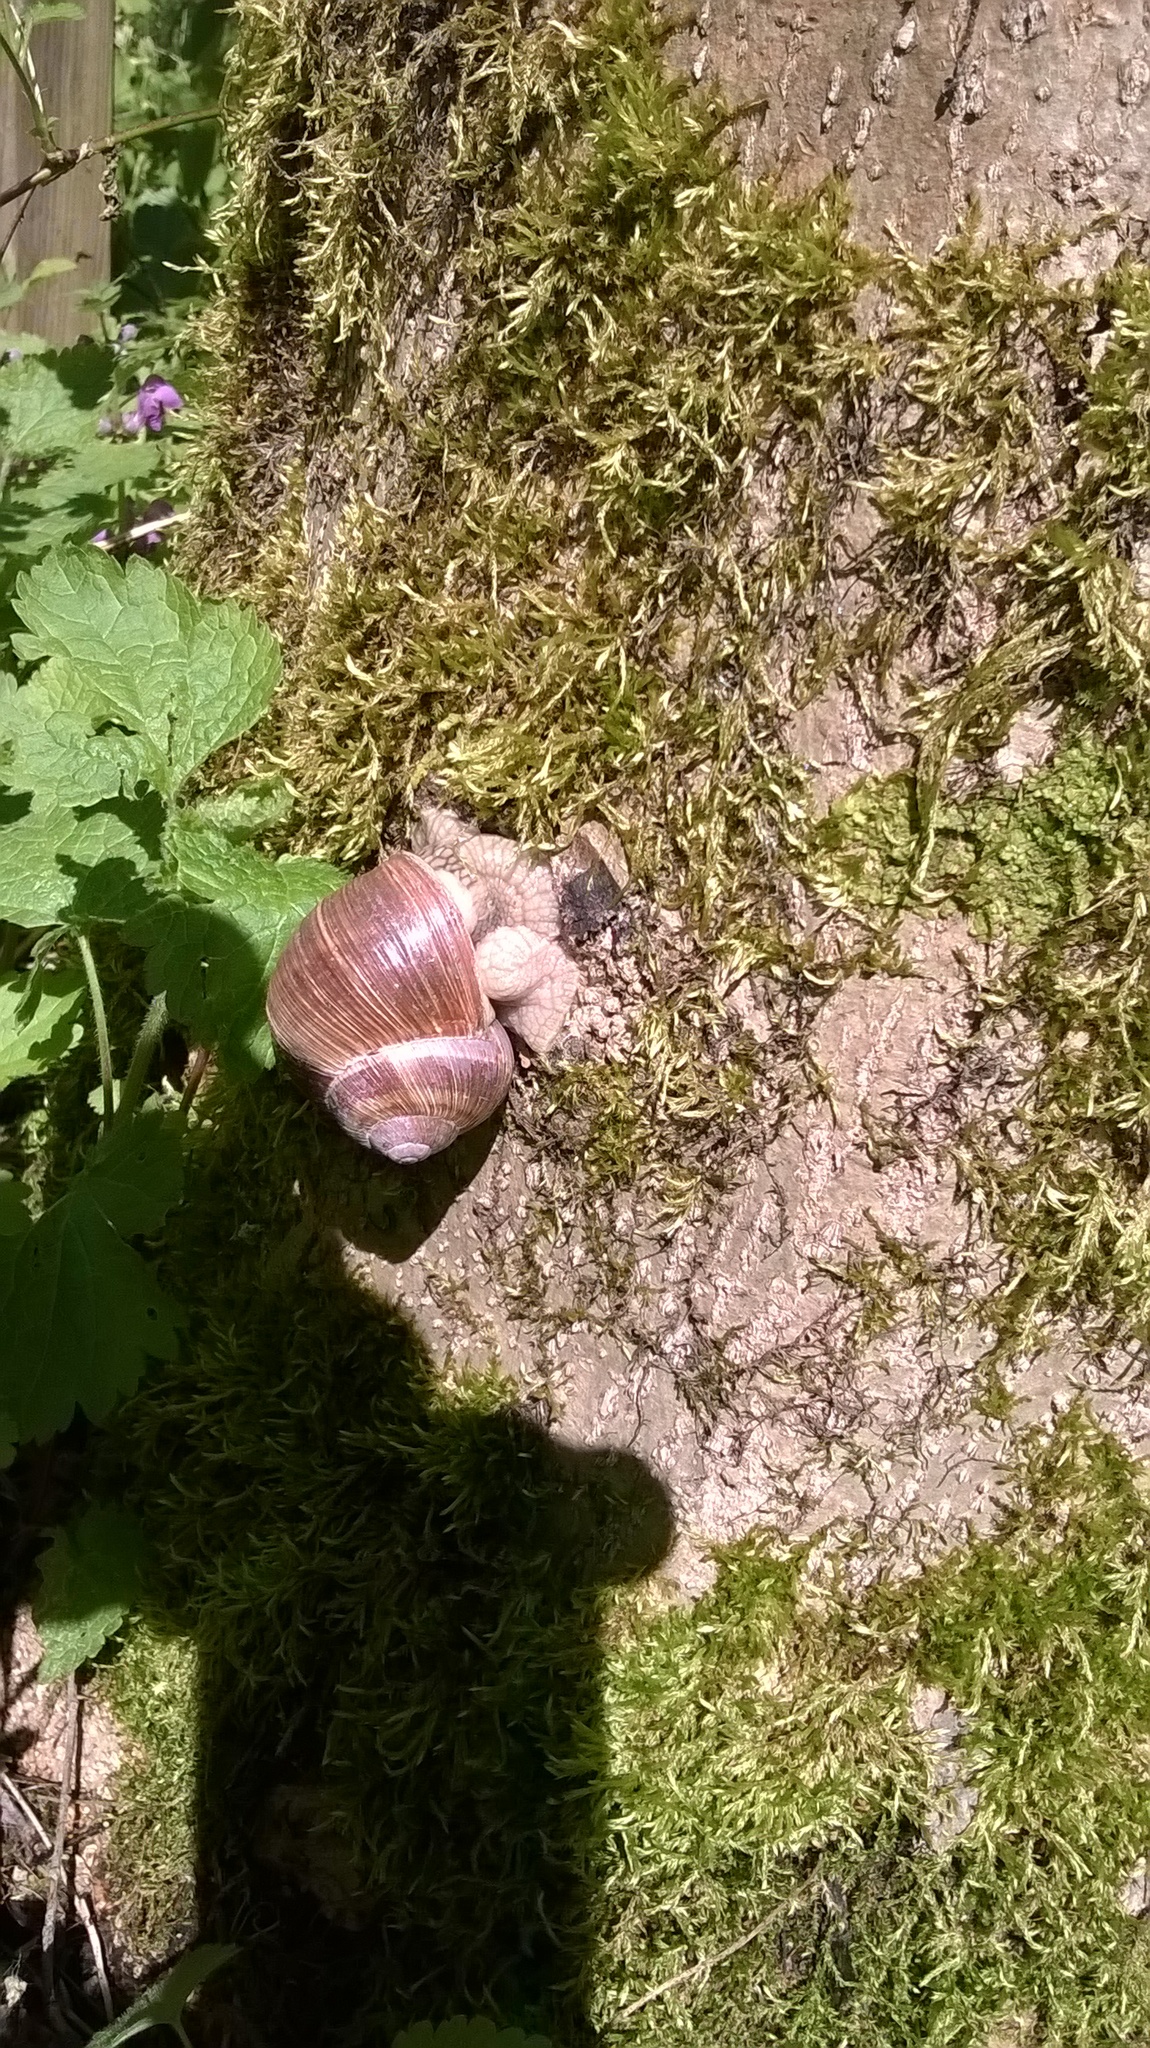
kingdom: Animalia
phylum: Mollusca
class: Gastropoda
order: Stylommatophora
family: Helicidae
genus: Helix
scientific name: Helix pomatia
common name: Roman snail
